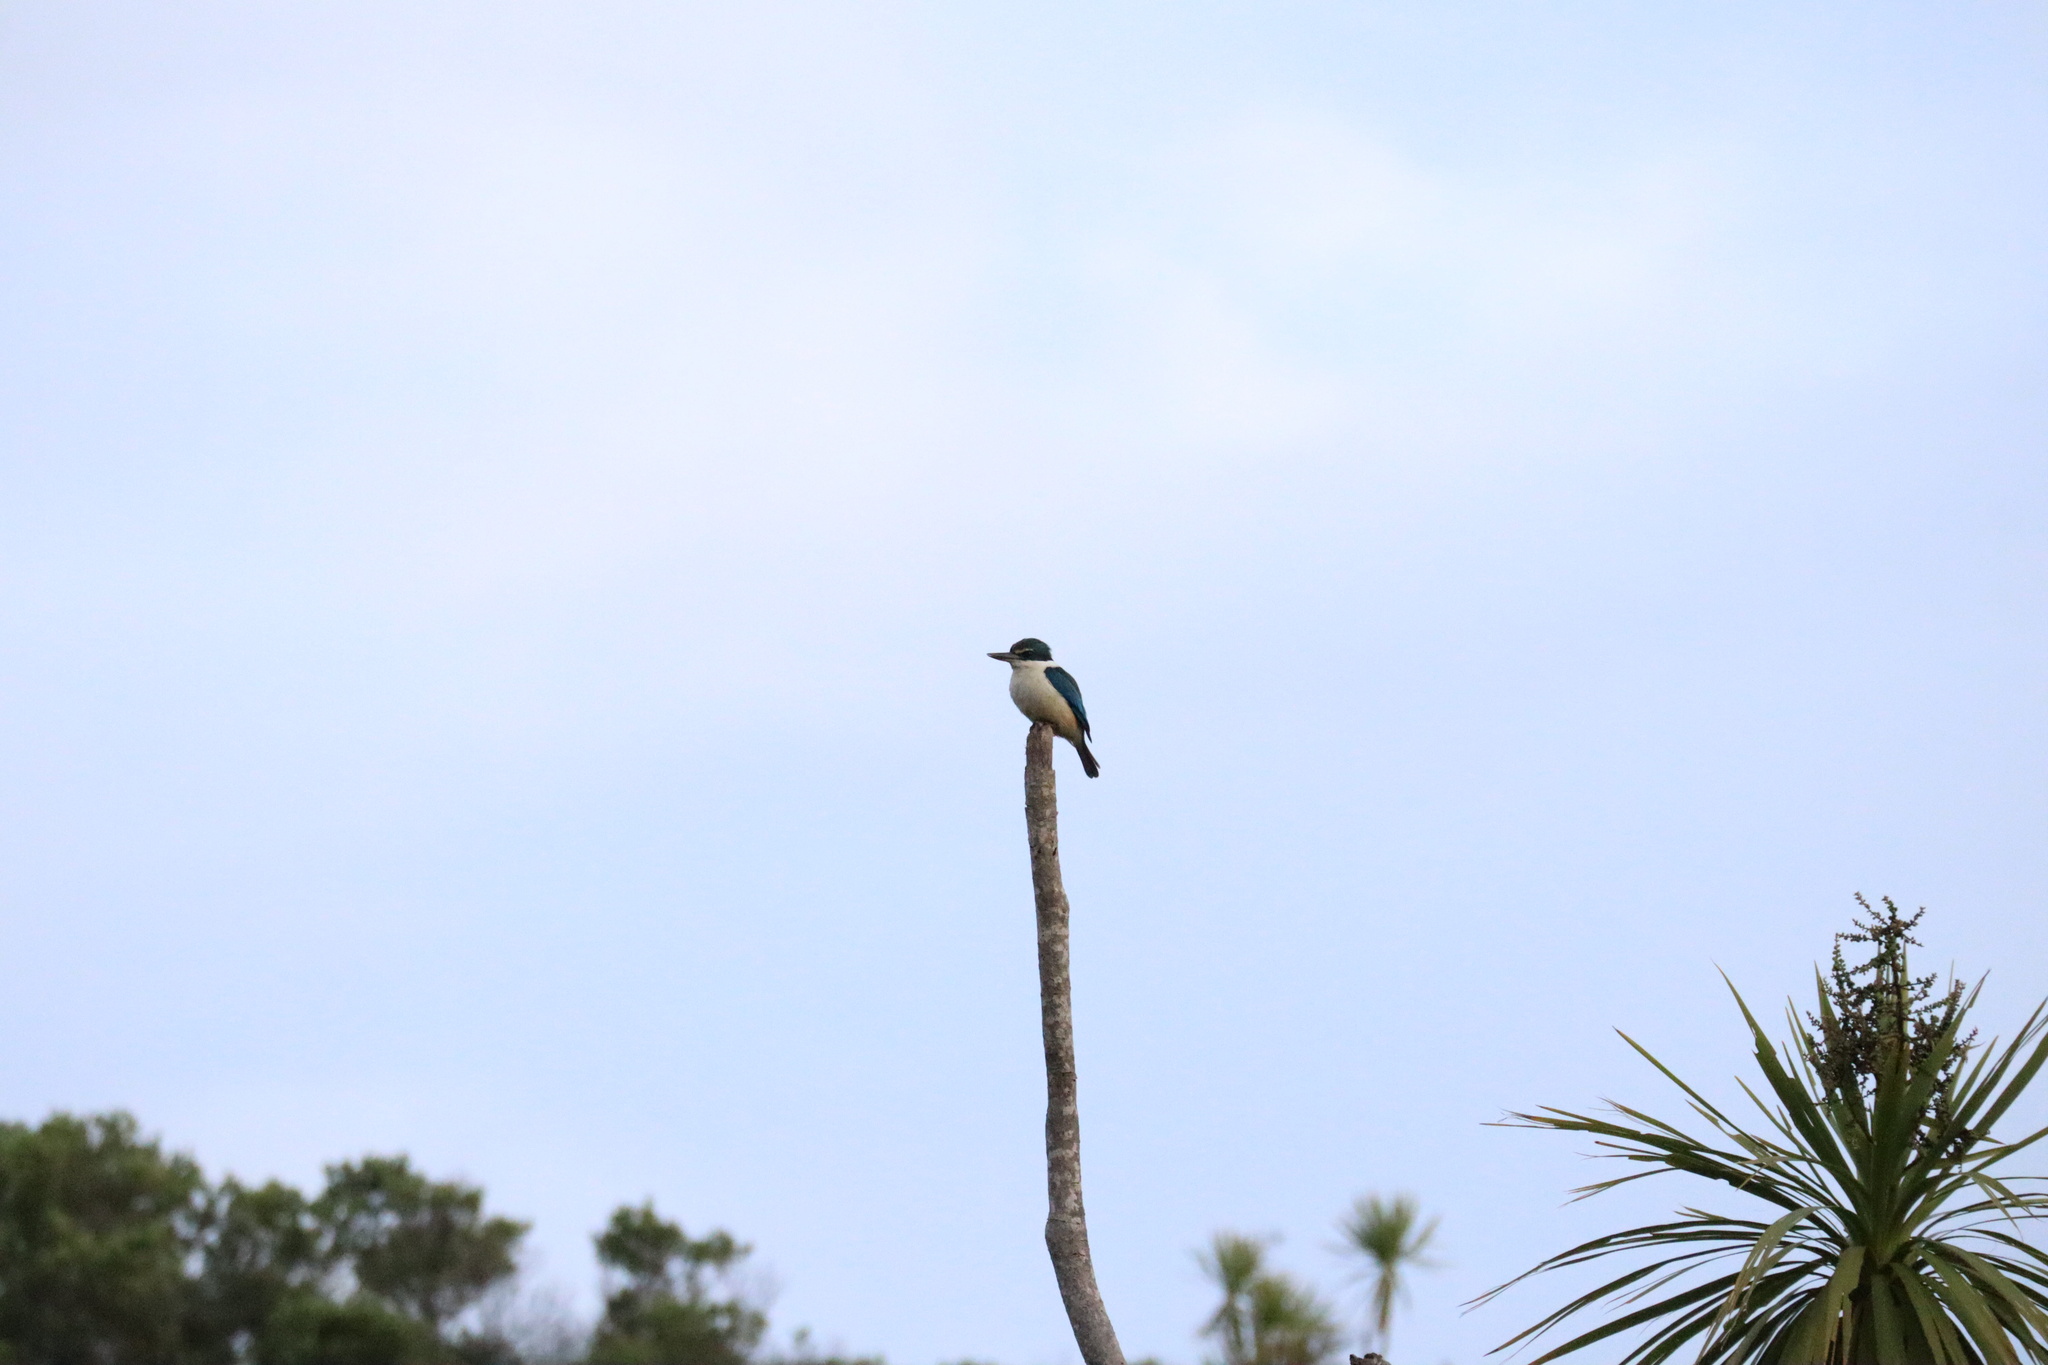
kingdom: Animalia
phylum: Chordata
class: Aves
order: Coraciiformes
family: Alcedinidae
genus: Todiramphus
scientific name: Todiramphus sanctus
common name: Sacred kingfisher
